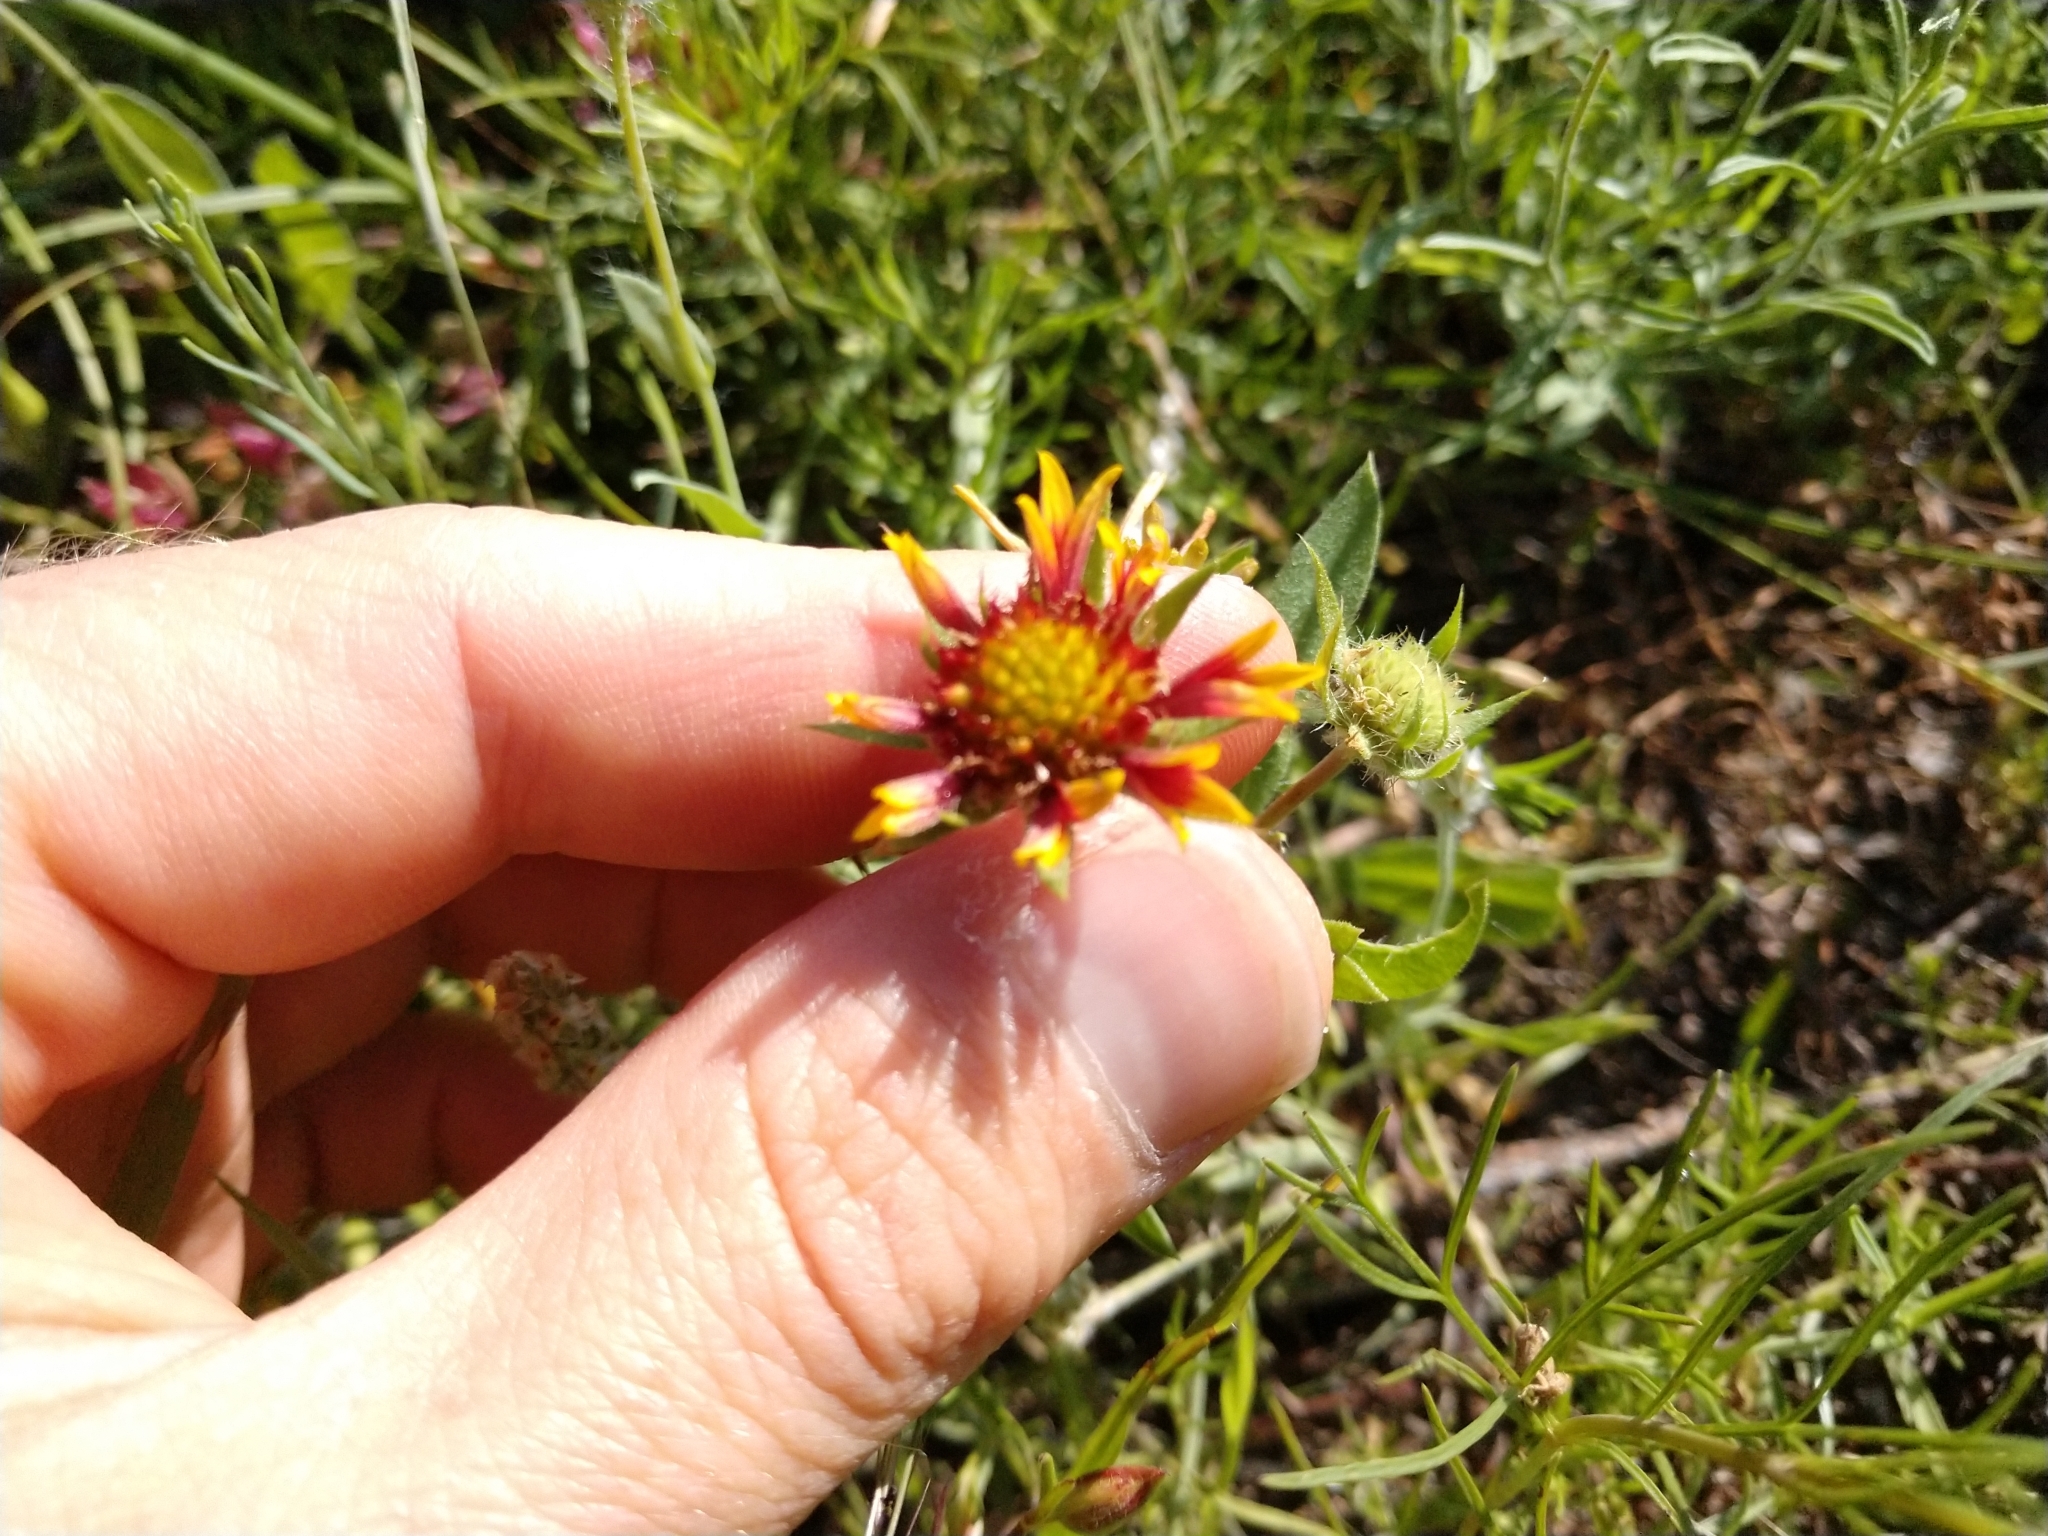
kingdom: Plantae
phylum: Tracheophyta
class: Magnoliopsida
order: Asterales
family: Asteraceae
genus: Gaillardia
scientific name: Gaillardia pulchella
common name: Firewheel
